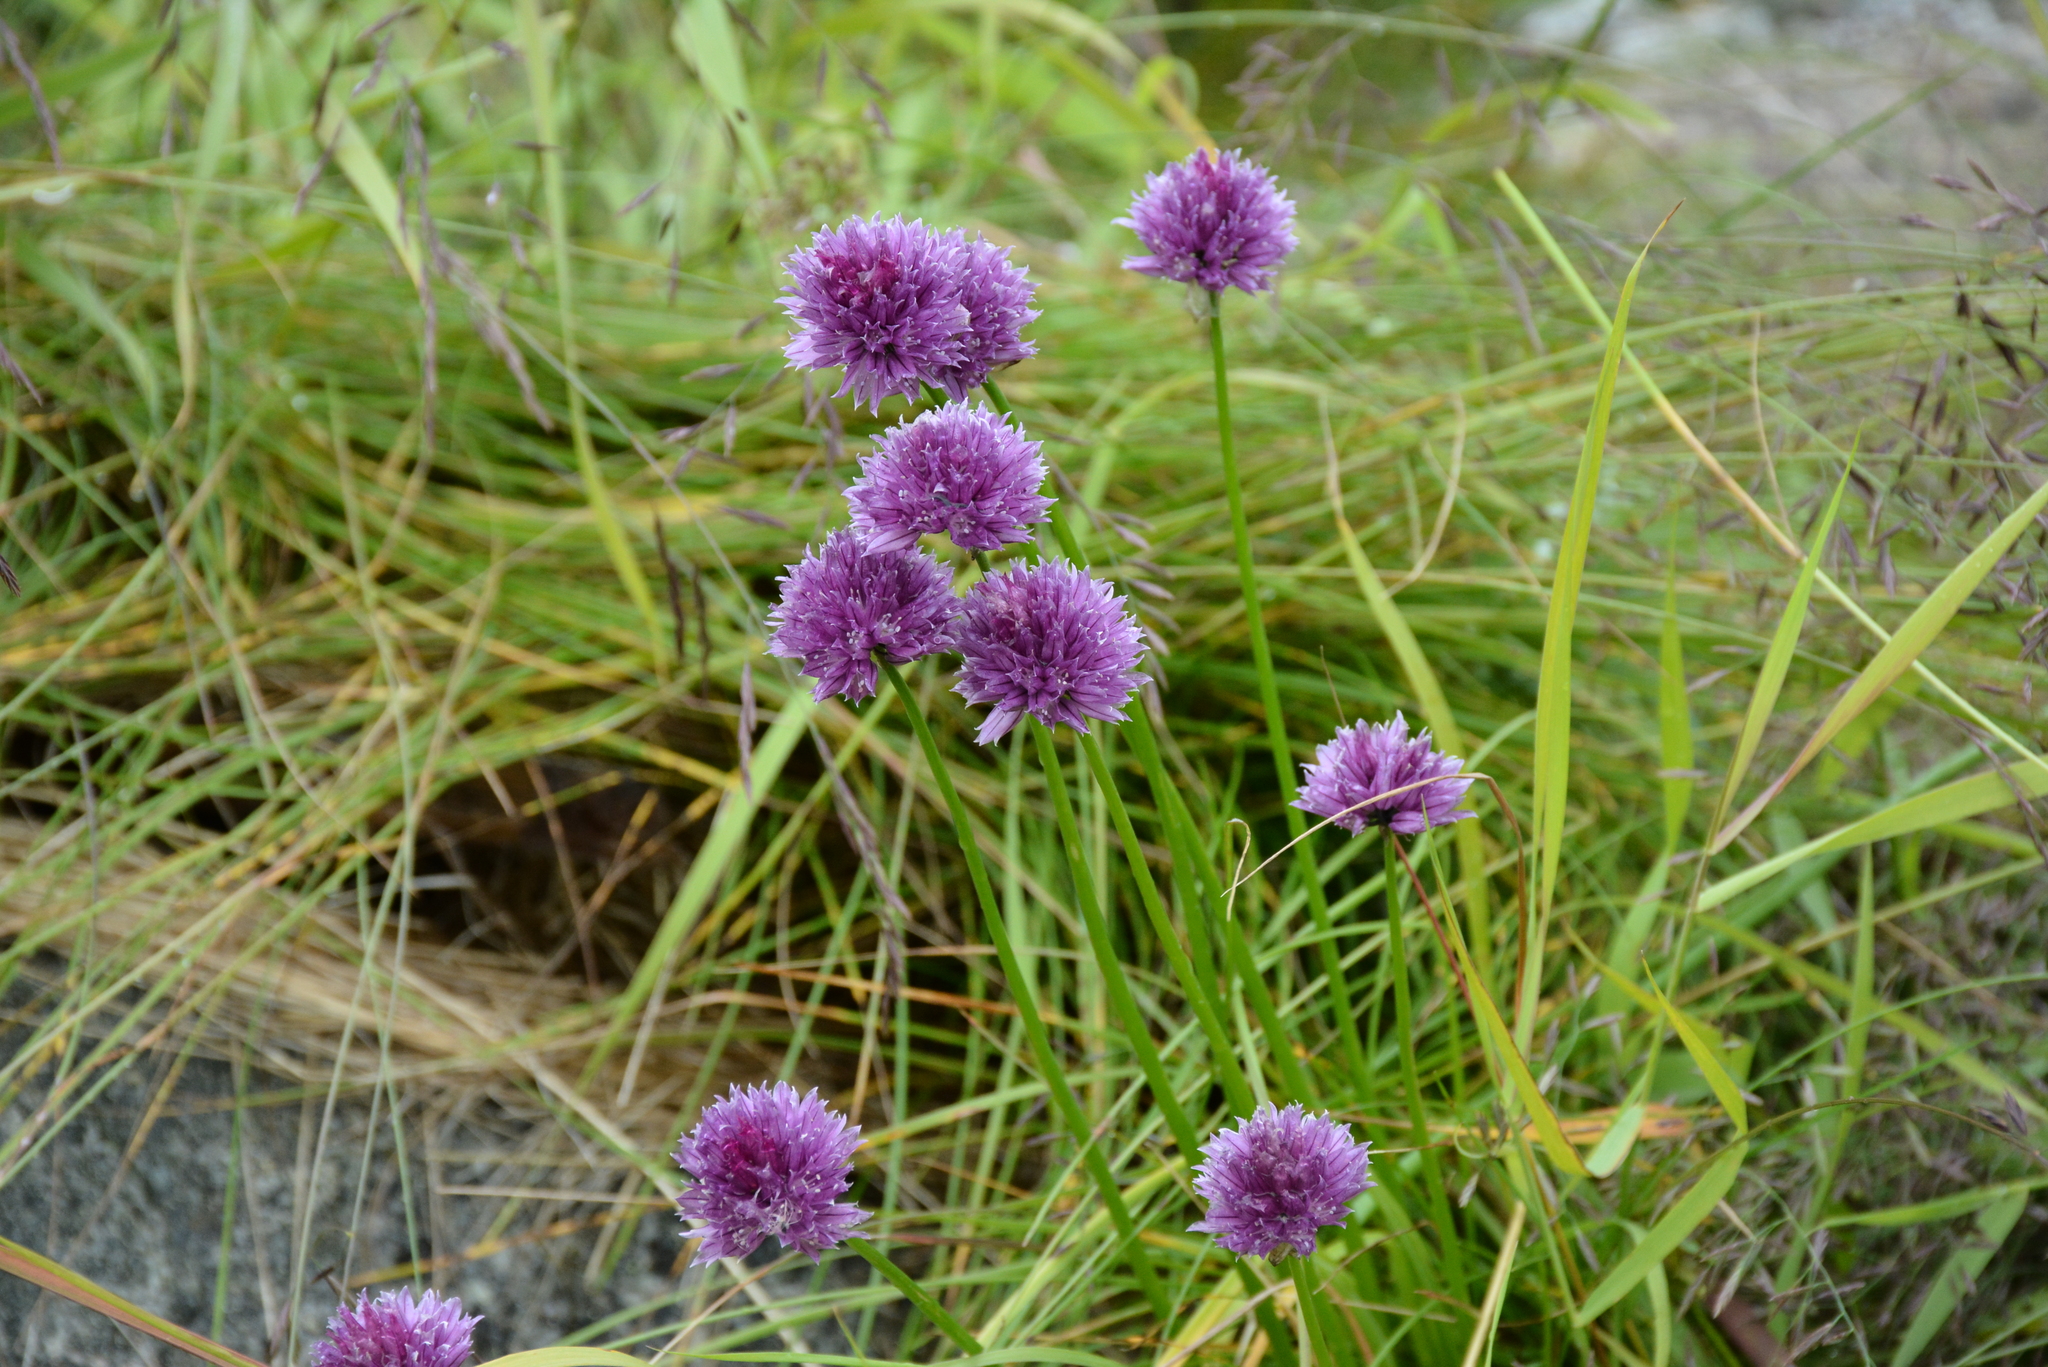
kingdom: Plantae
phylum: Tracheophyta
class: Liliopsida
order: Asparagales
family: Amaryllidaceae
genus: Allium
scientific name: Allium schoenoprasum
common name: Chives
